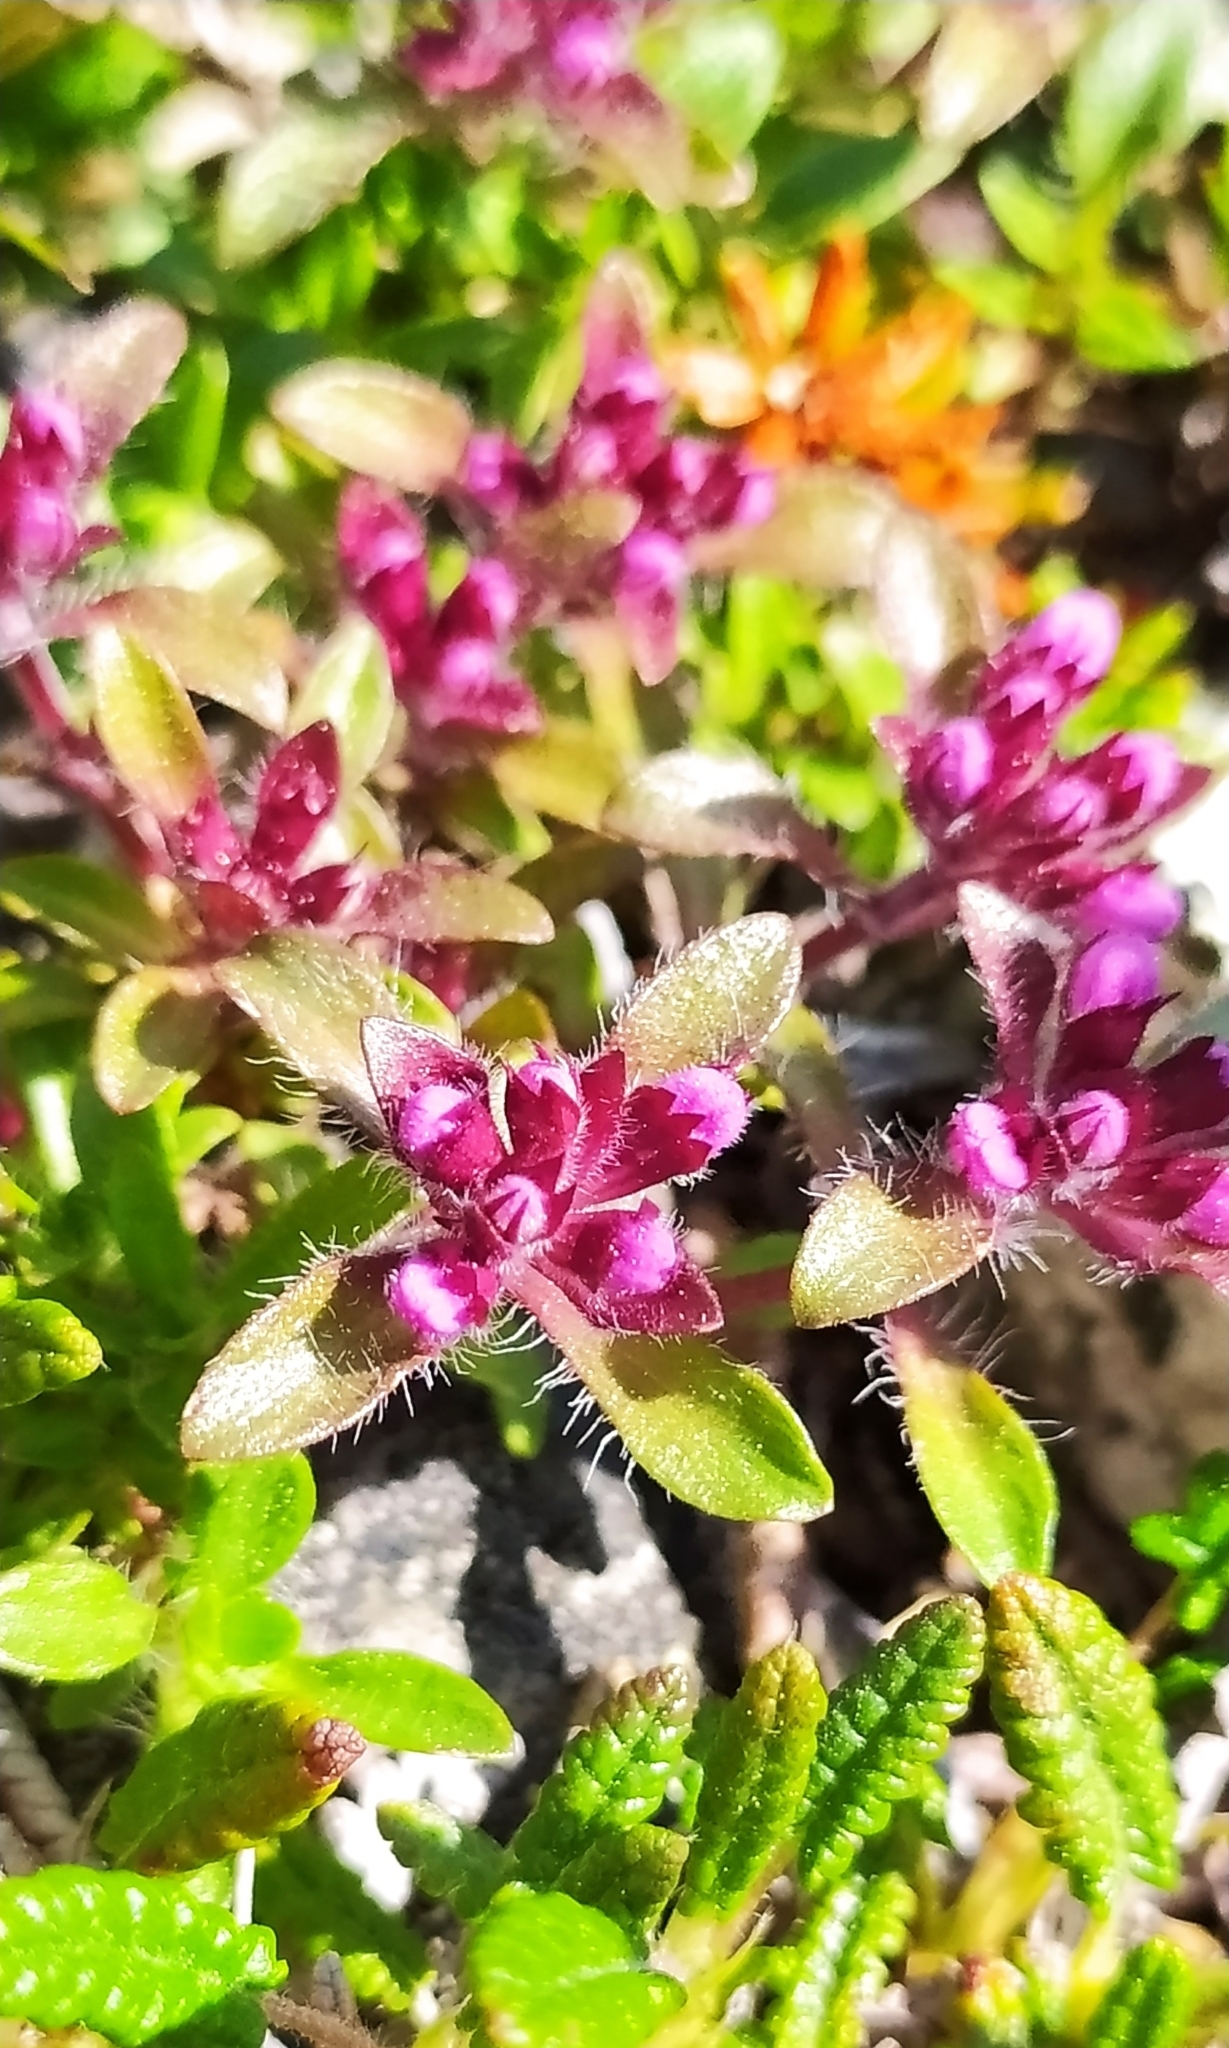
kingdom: Plantae
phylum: Tracheophyta
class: Magnoliopsida
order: Lamiales
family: Lamiaceae
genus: Thymus
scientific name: Thymus glabricaulis
